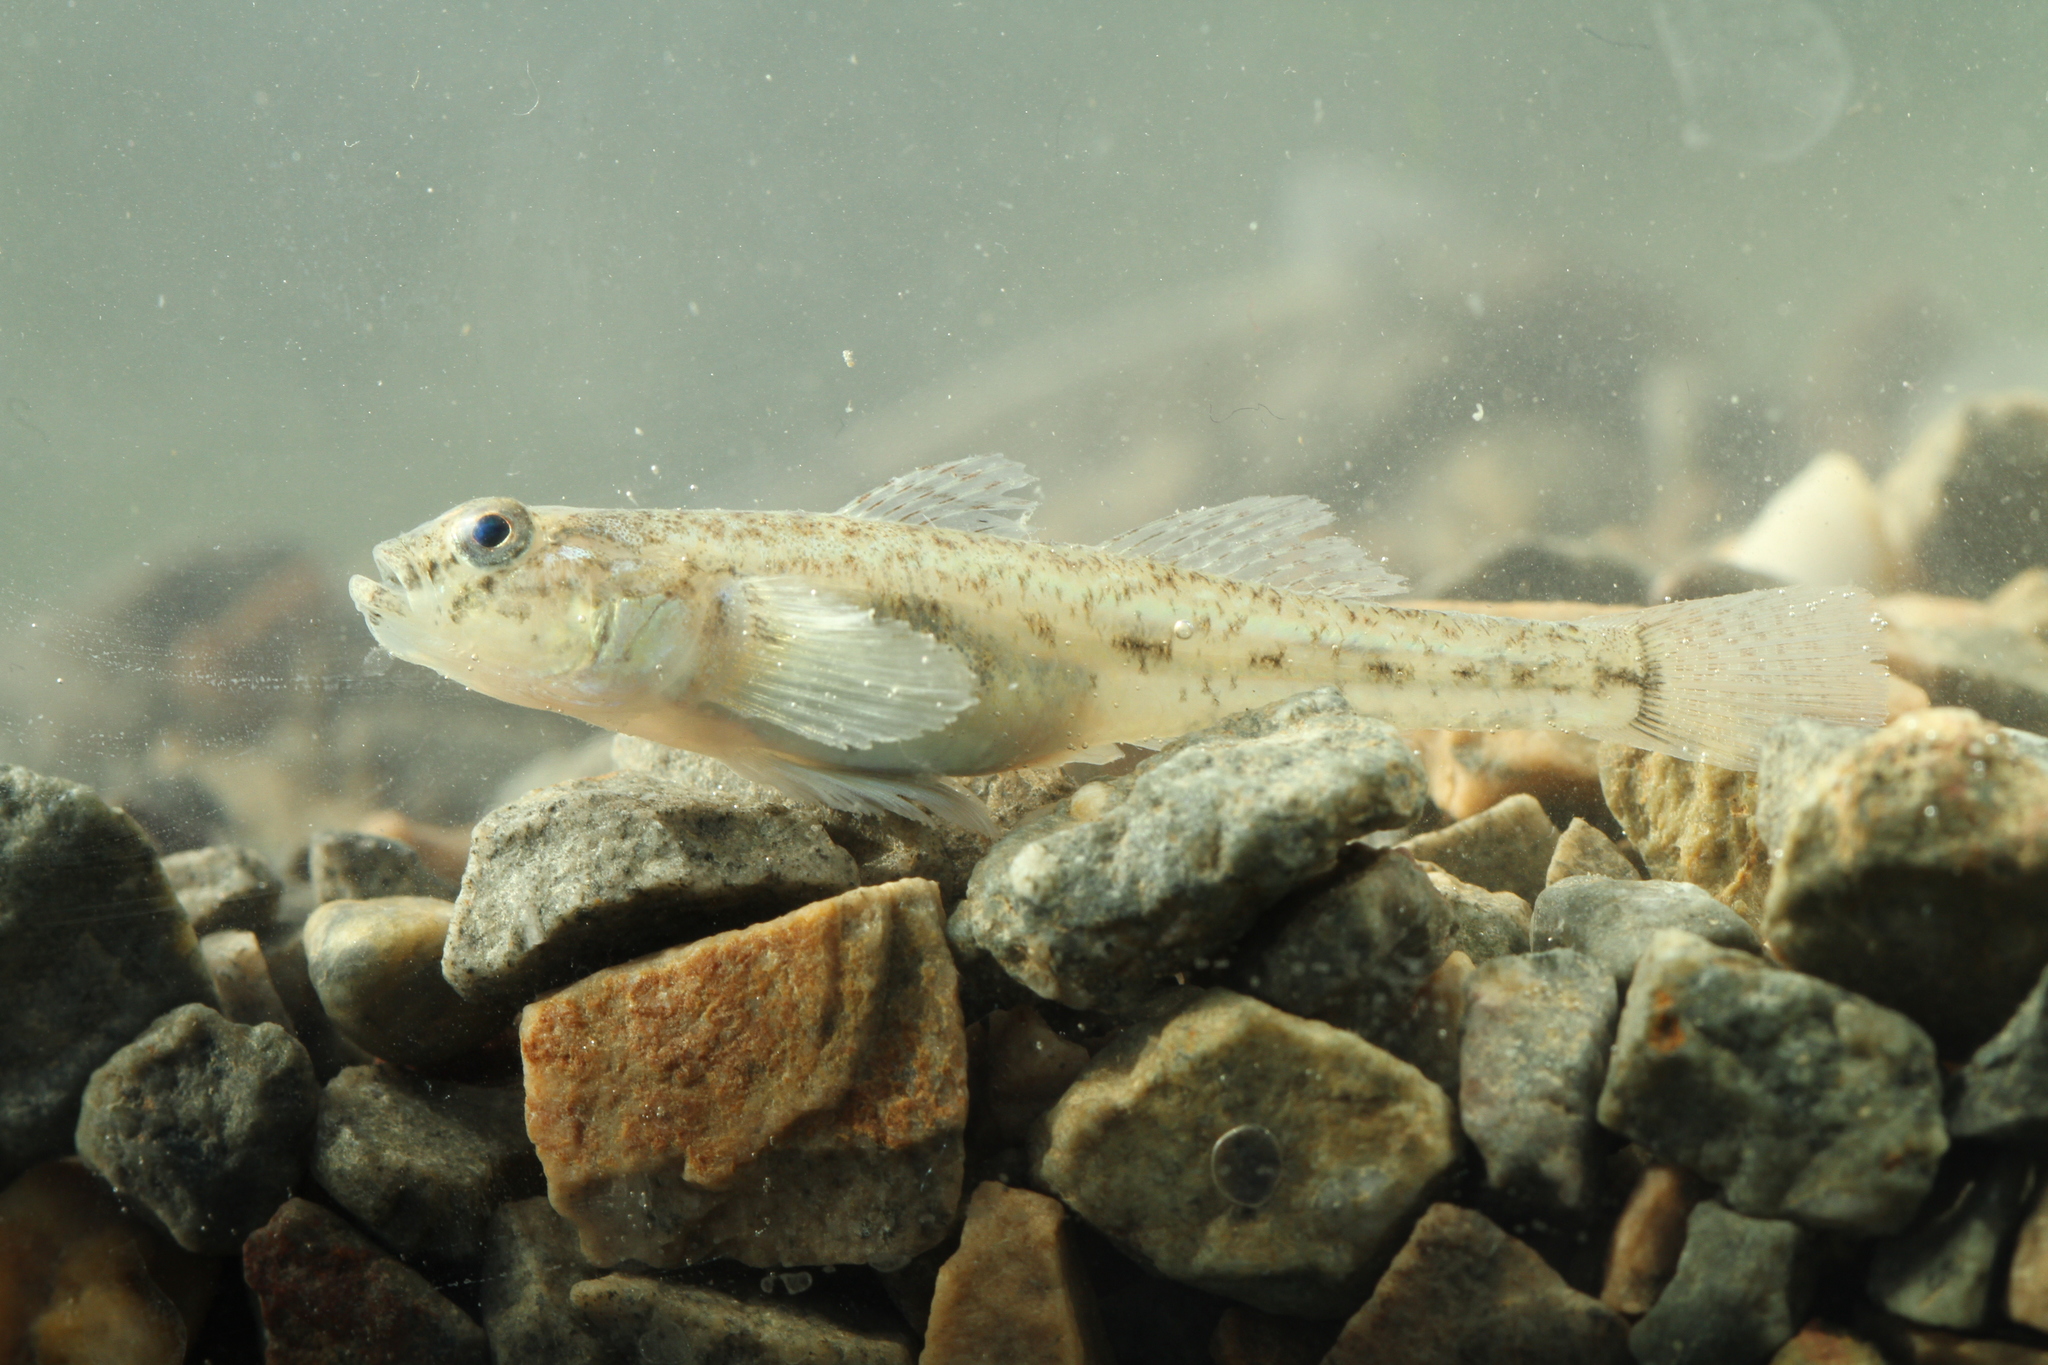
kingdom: Animalia
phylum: Chordata
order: Perciformes
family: Gobiidae
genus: Pomatoschistus
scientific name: Pomatoschistus microps
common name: Common goby
